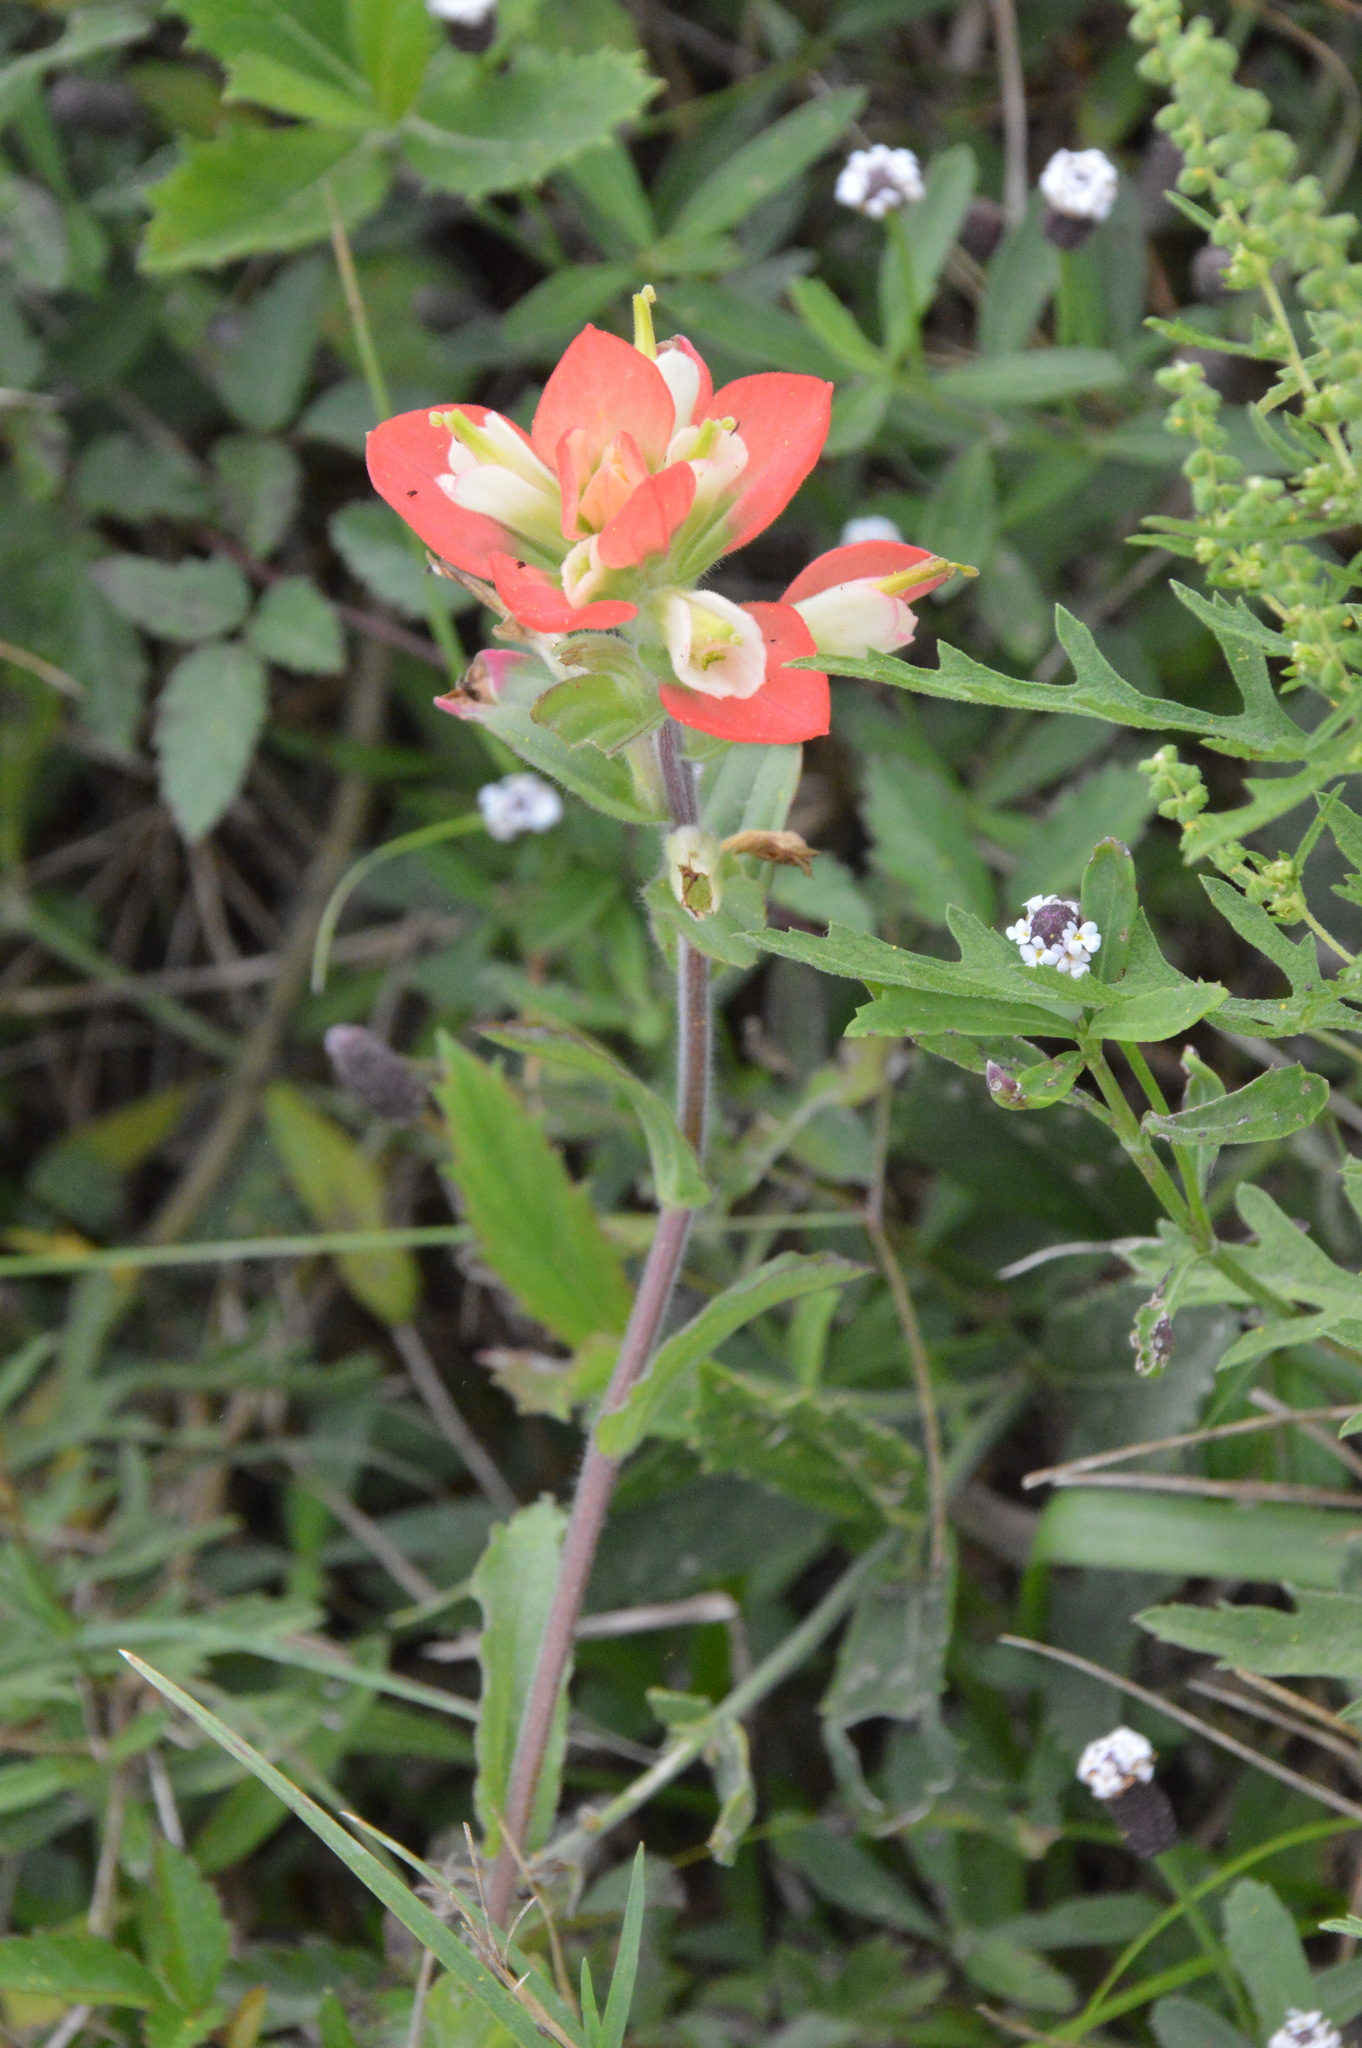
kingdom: Plantae
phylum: Tracheophyta
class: Magnoliopsida
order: Lamiales
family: Orobanchaceae
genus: Castilleja
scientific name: Castilleja indivisa
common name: Texas paintbrush
